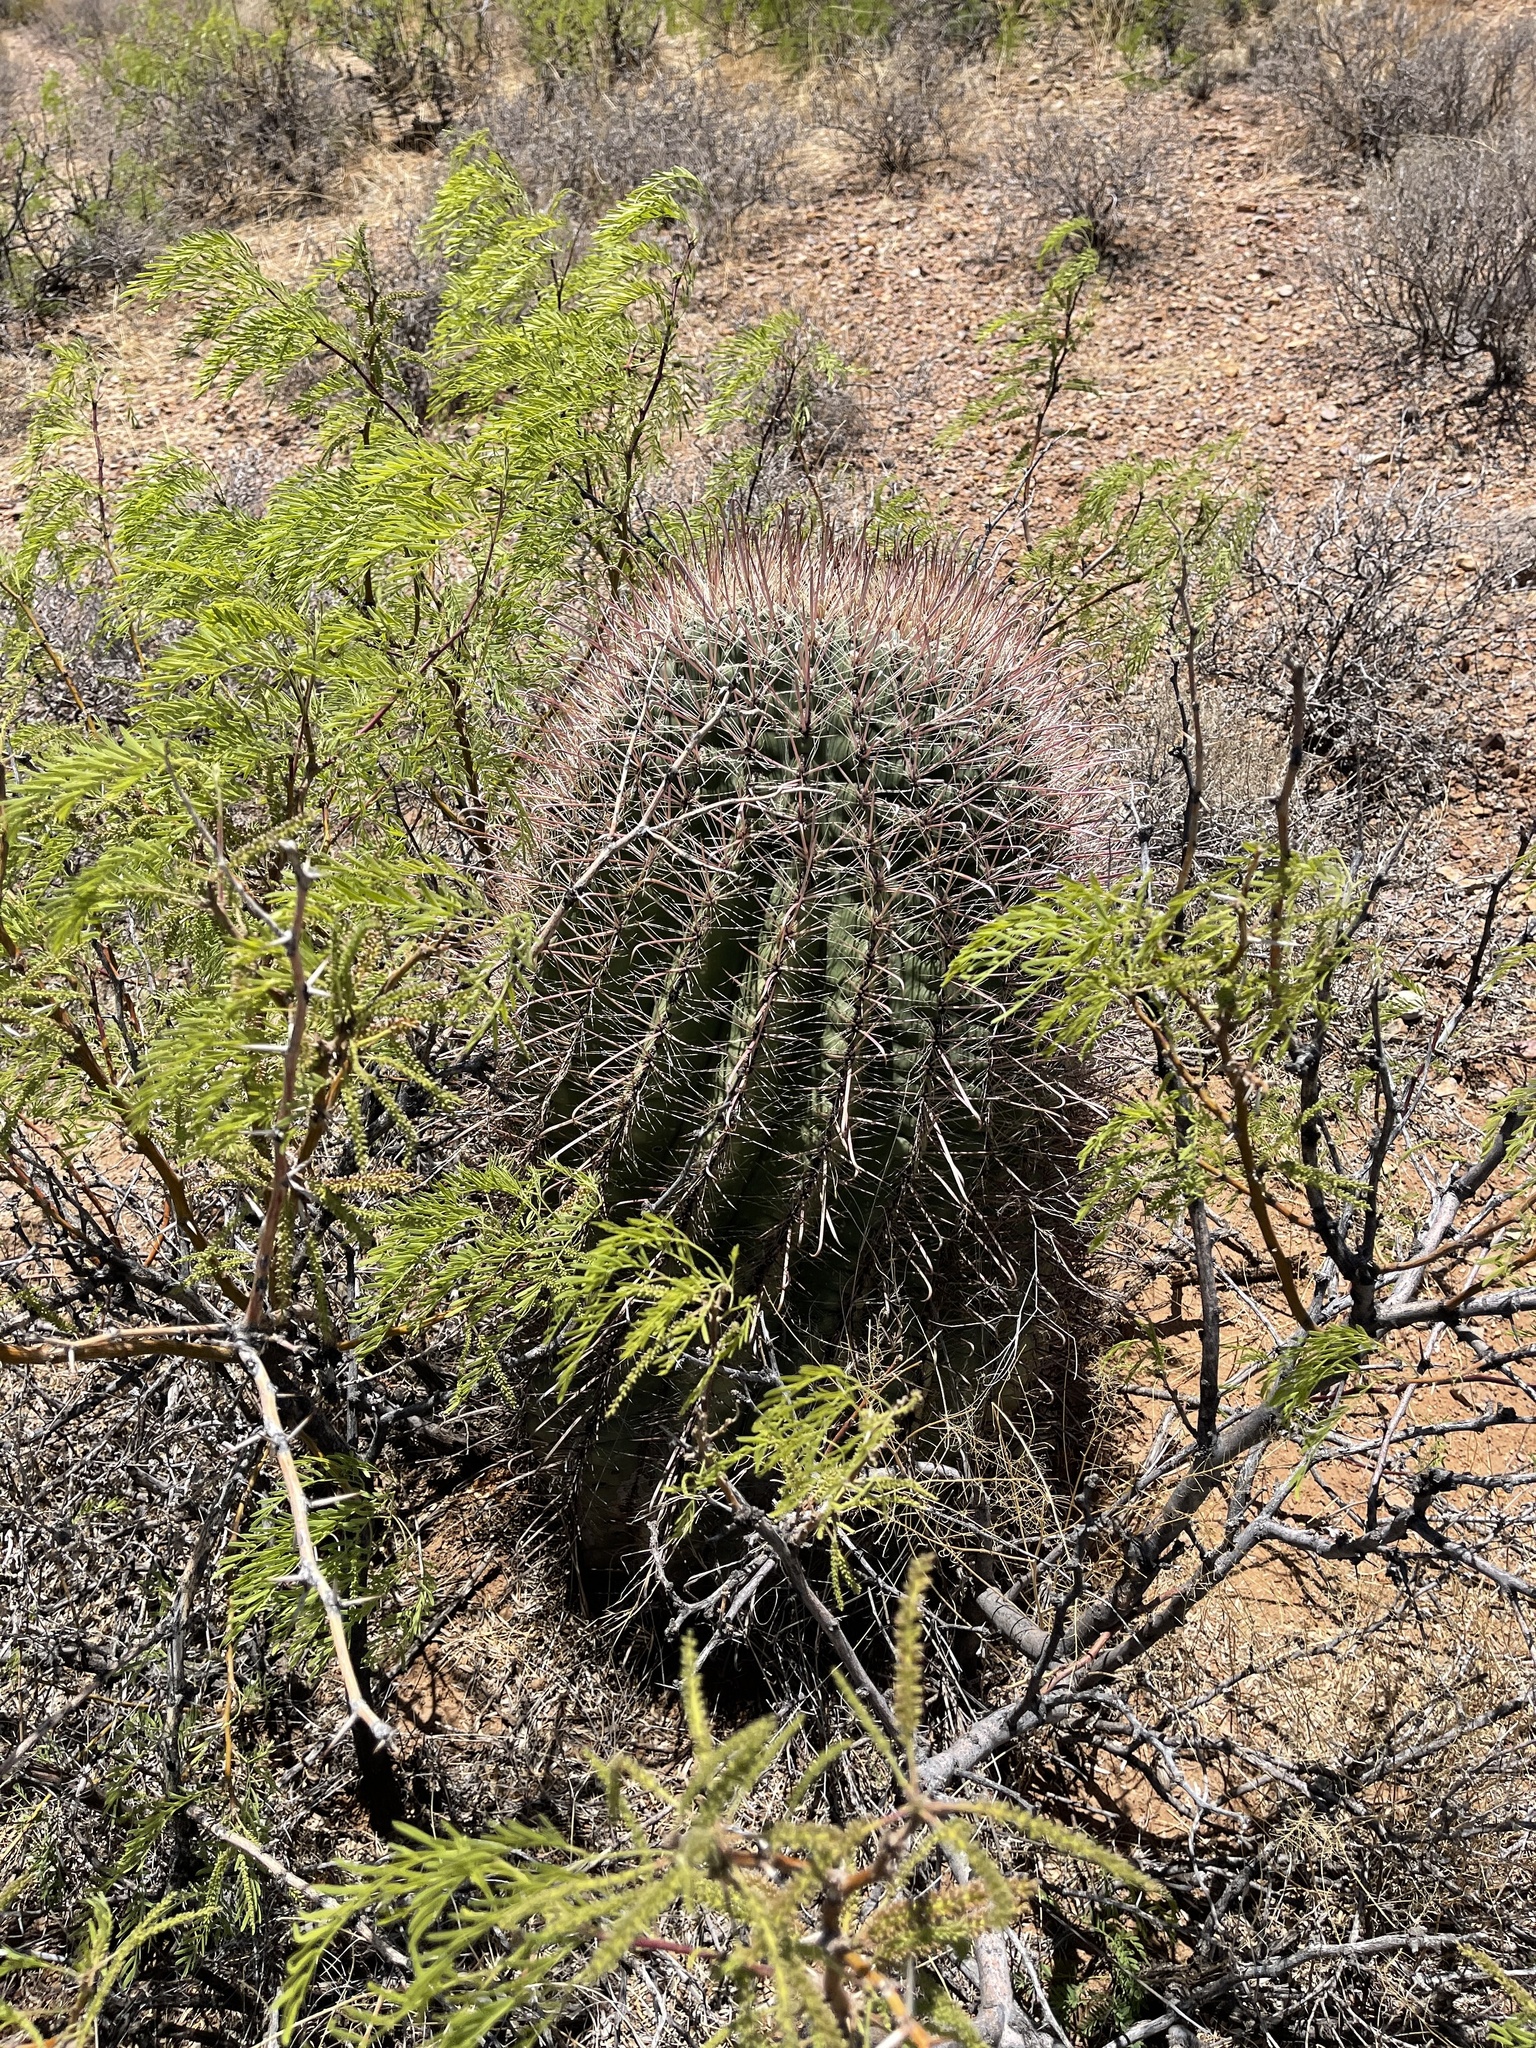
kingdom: Plantae
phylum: Tracheophyta
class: Magnoliopsida
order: Caryophyllales
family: Cactaceae
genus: Ferocactus
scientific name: Ferocactus wislizeni
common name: Candy barrel cactus
